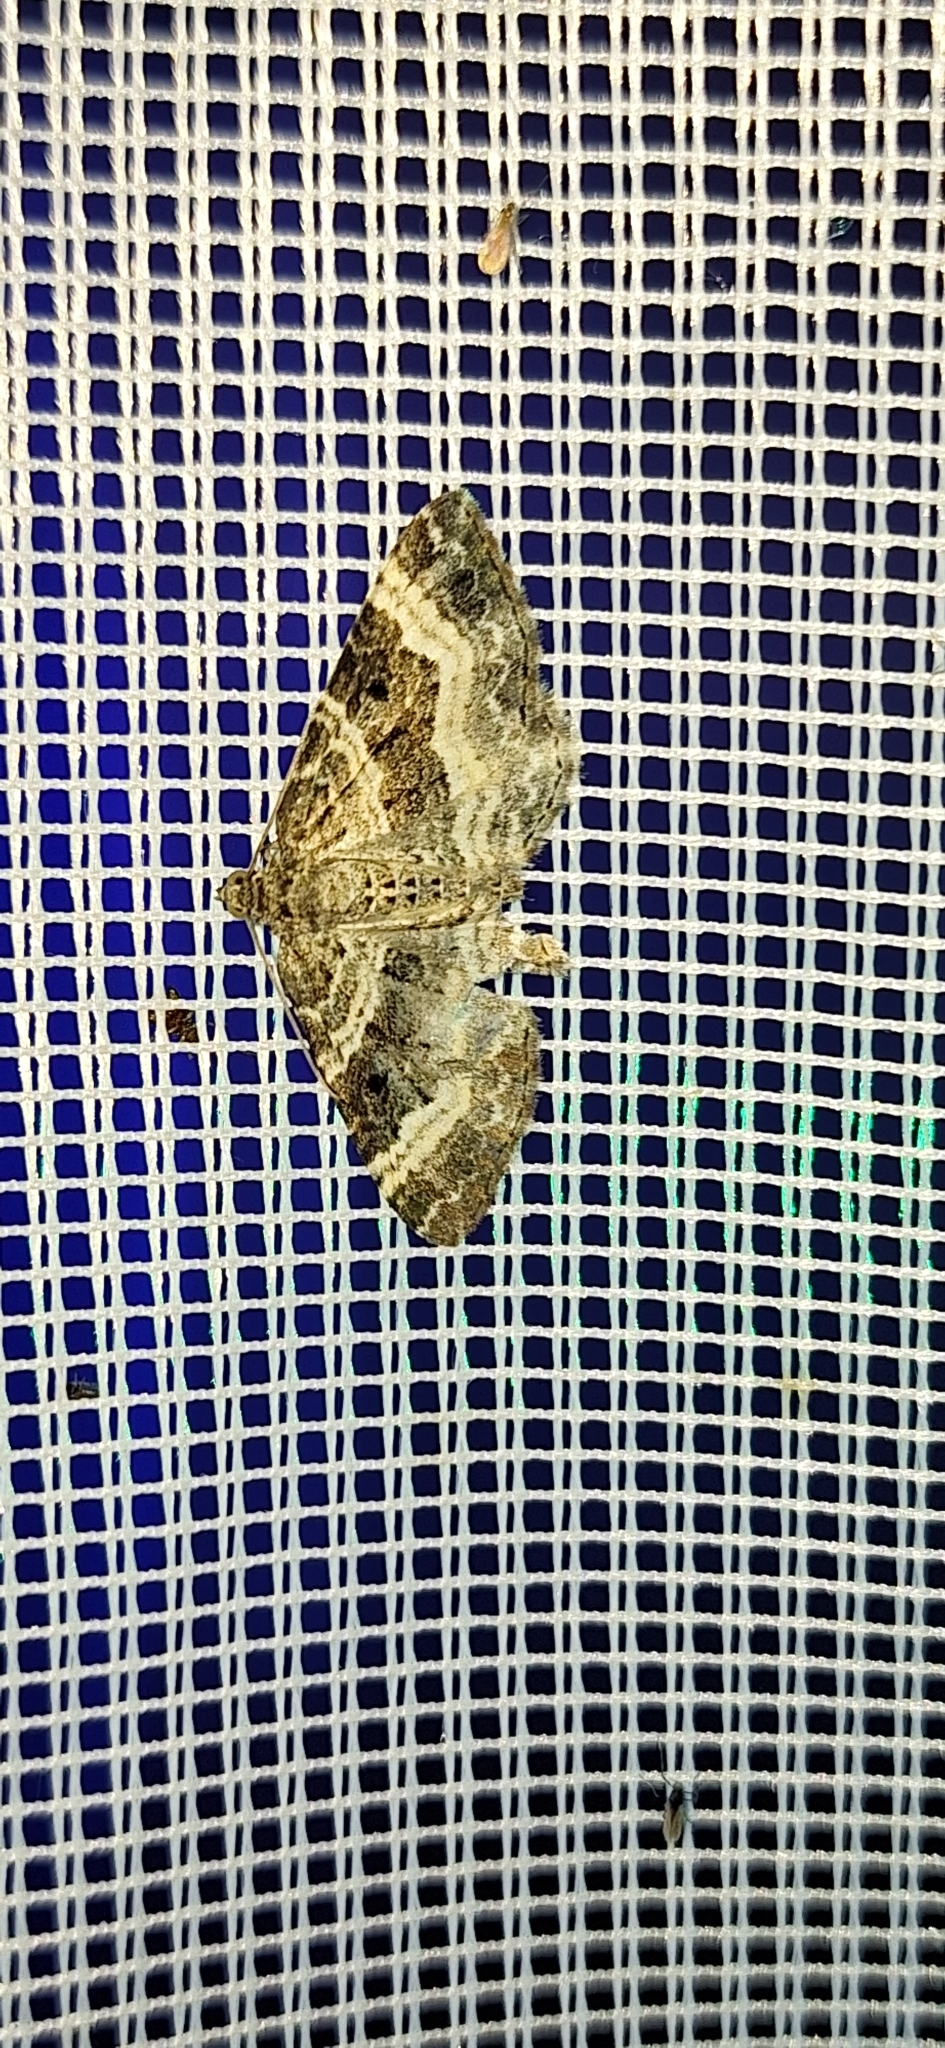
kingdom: Animalia
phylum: Arthropoda
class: Insecta
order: Lepidoptera
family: Geometridae
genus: Epirrhoe
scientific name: Epirrhoe alternata
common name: Common carpet
